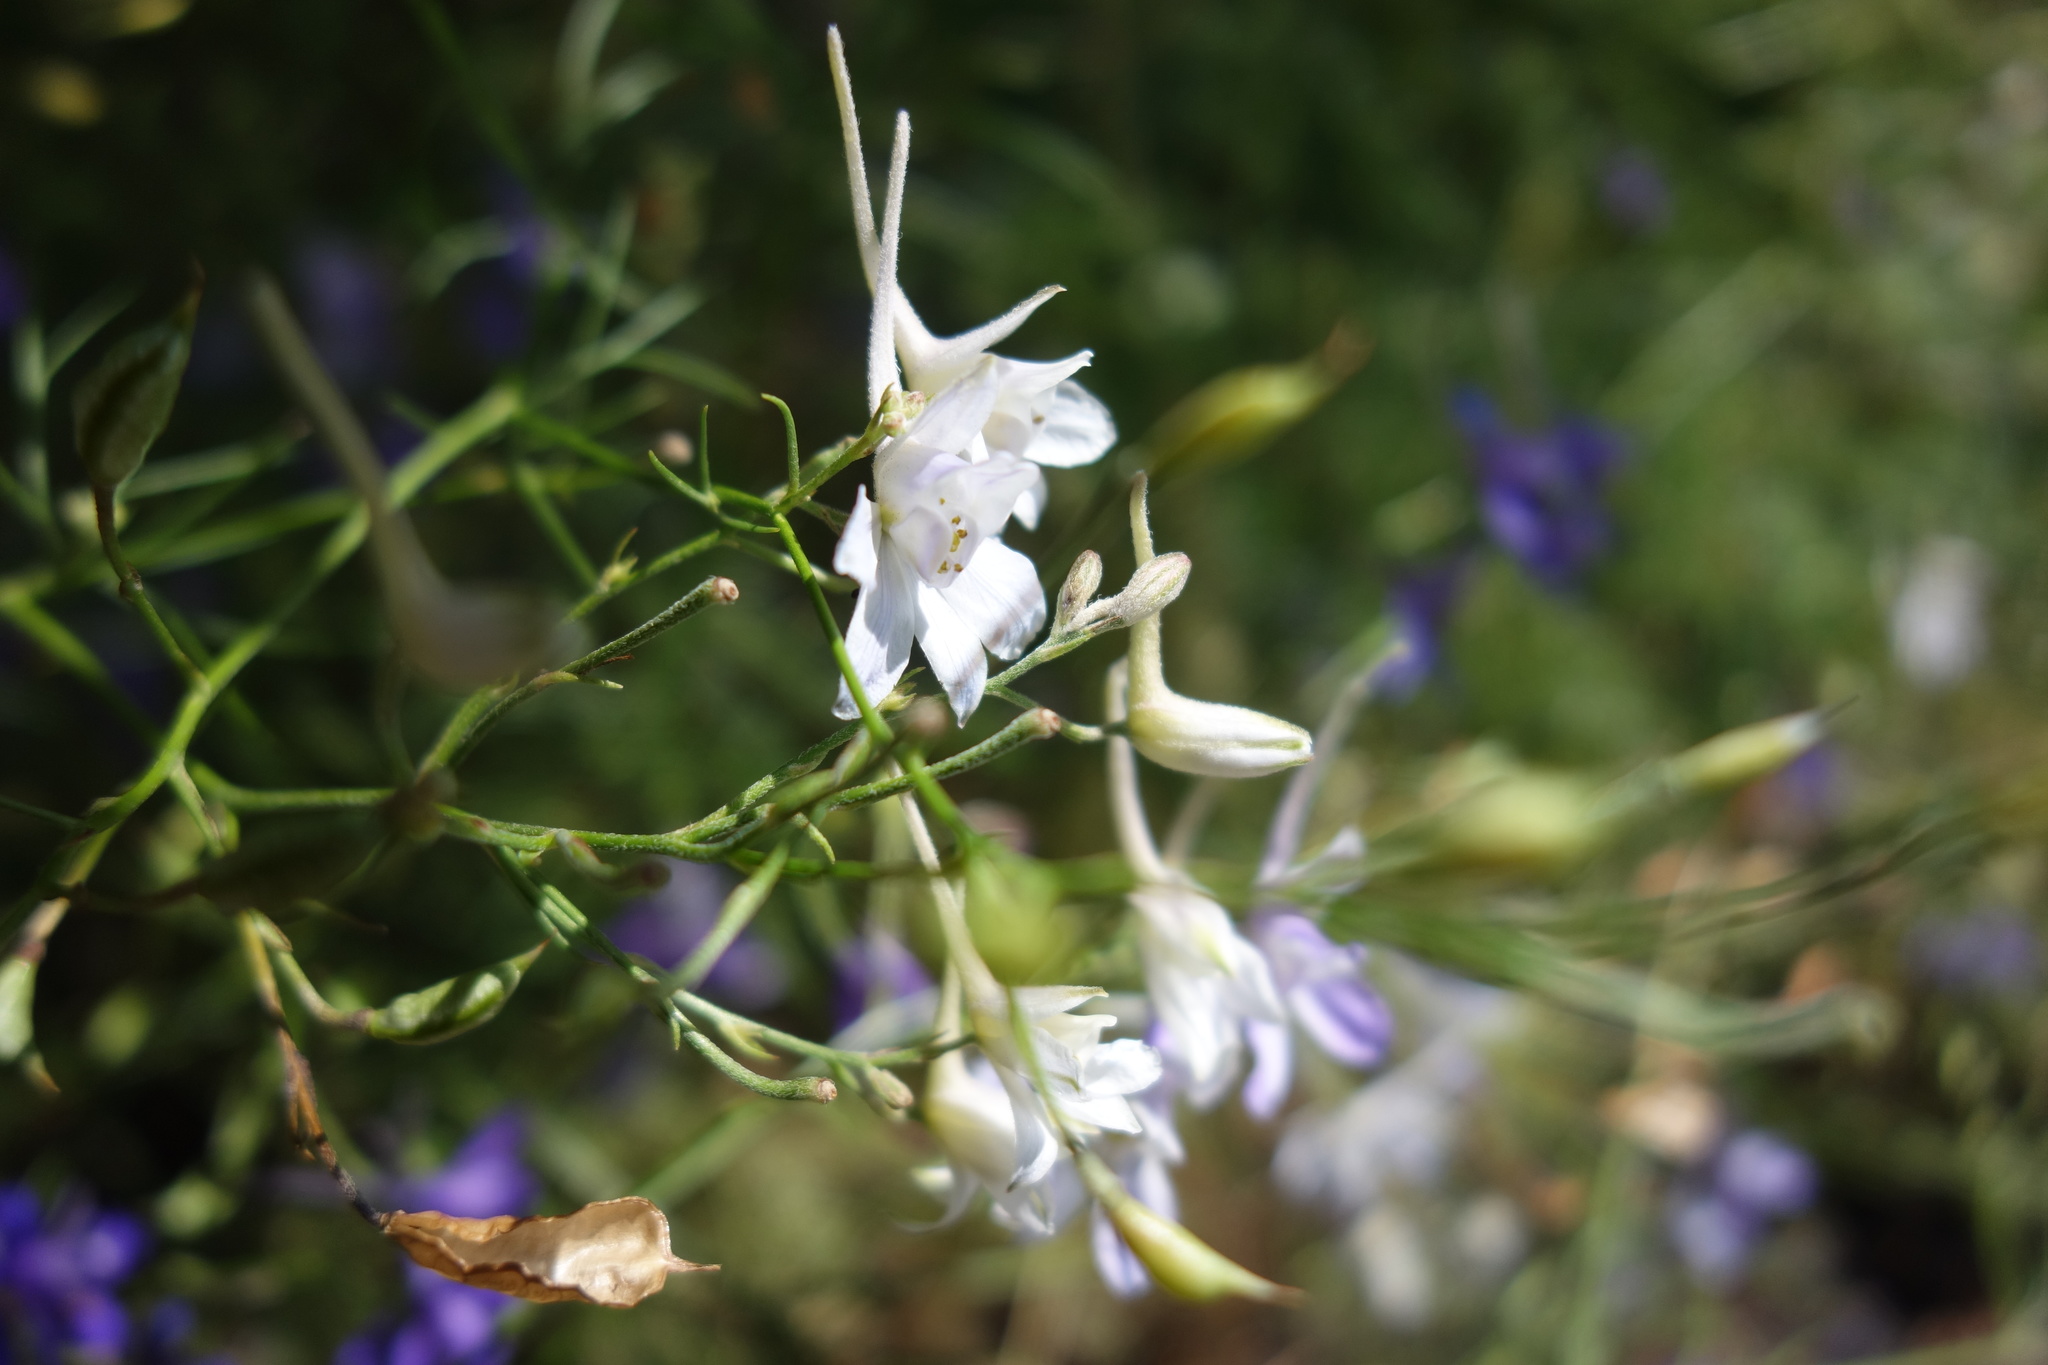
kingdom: Plantae
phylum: Tracheophyta
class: Magnoliopsida
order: Ranunculales
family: Ranunculaceae
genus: Delphinium
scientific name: Delphinium consolida
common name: Branching larkspur
